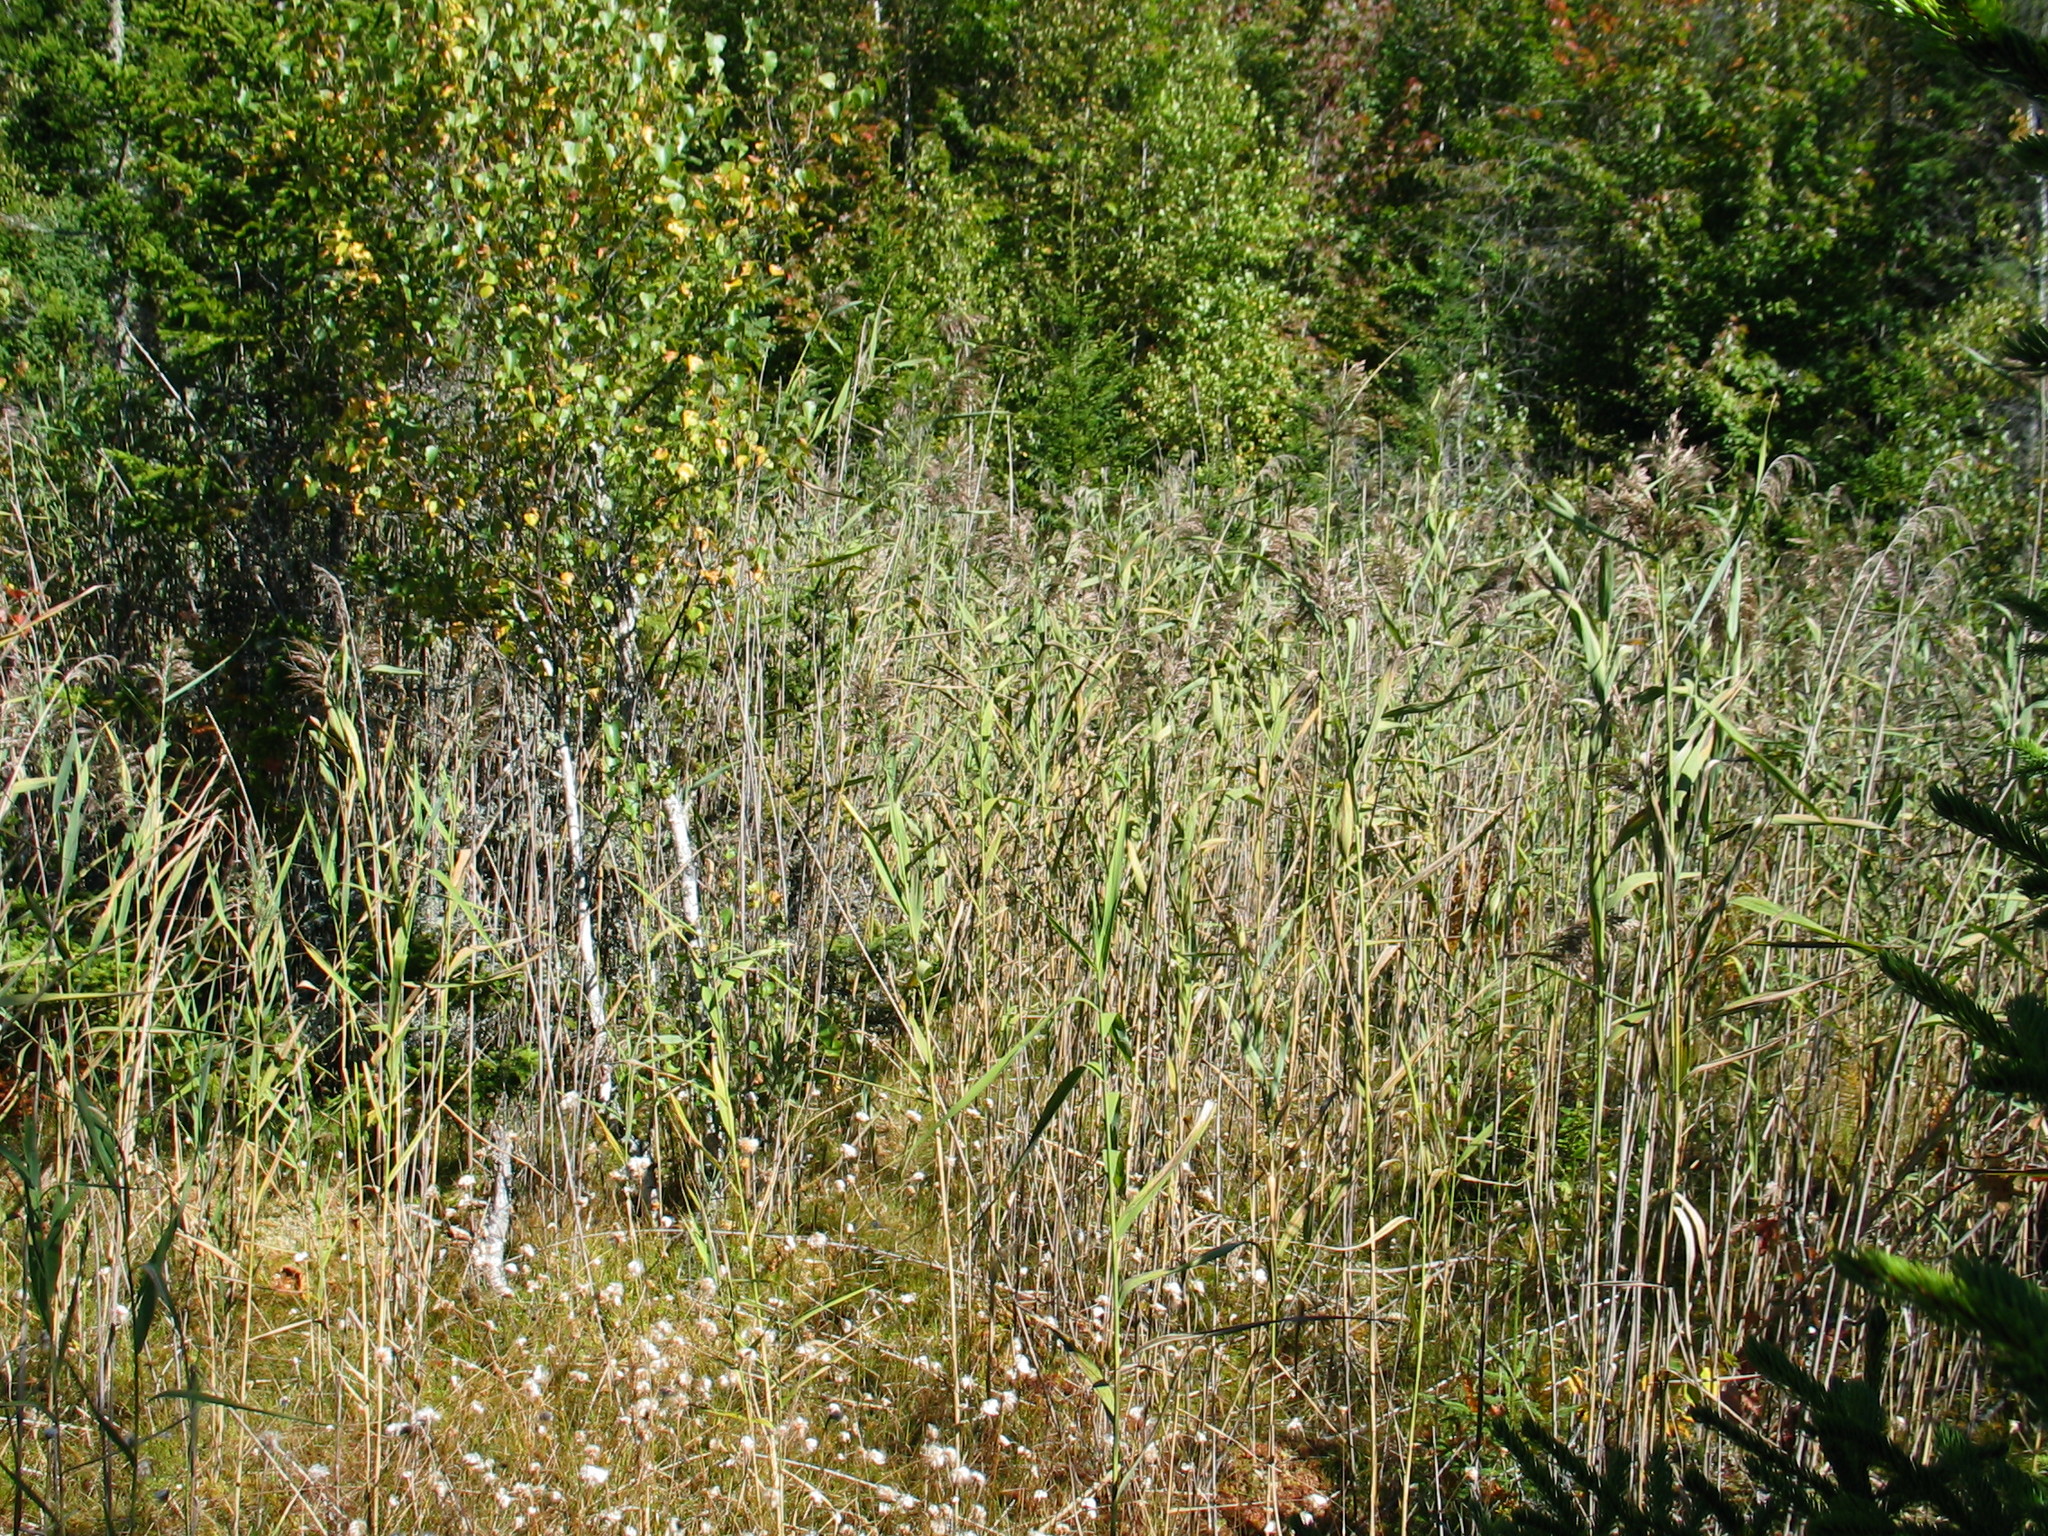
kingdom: Plantae
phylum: Tracheophyta
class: Liliopsida
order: Poales
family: Poaceae
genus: Phragmites
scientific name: Phragmites australis
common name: Common reed
